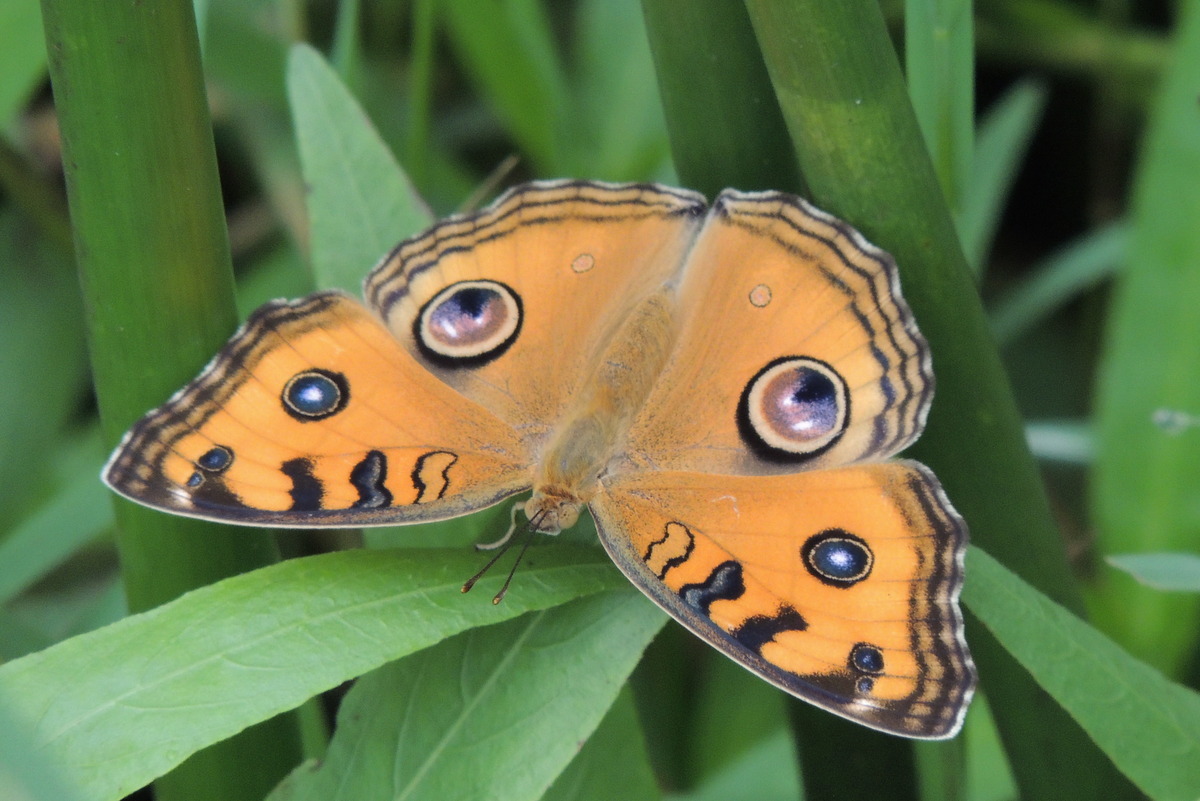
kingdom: Animalia
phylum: Arthropoda
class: Insecta
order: Lepidoptera
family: Nymphalidae
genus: Junonia
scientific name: Junonia almana
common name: Peacock pansy
